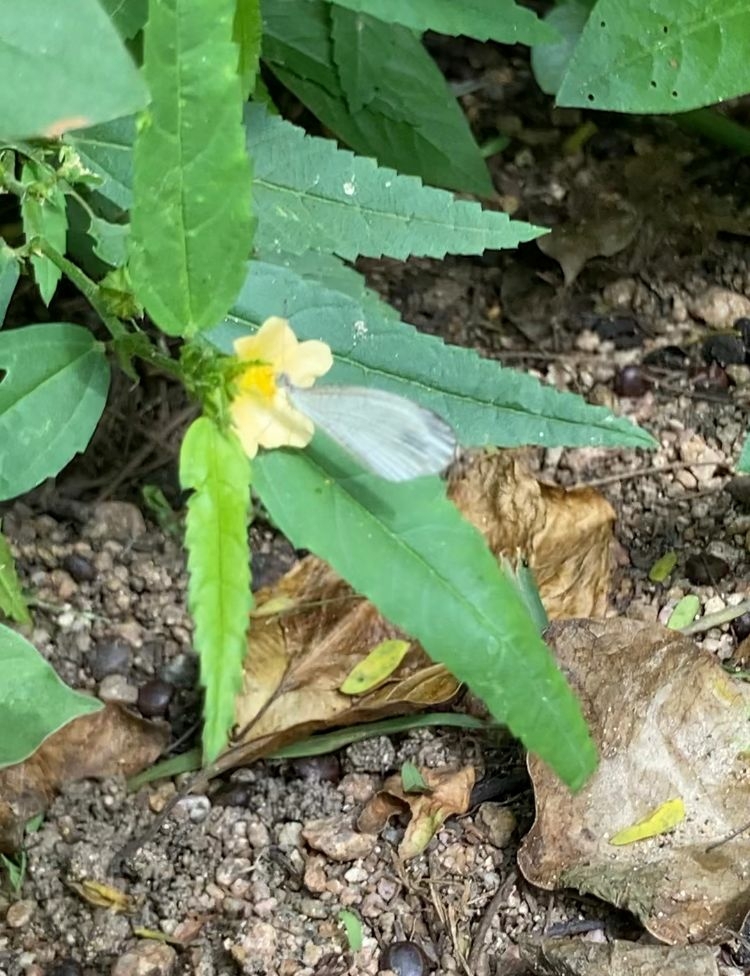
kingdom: Animalia
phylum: Arthropoda
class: Insecta
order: Lepidoptera
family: Pieridae
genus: Leptosia
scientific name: Leptosia nina
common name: Psyche
